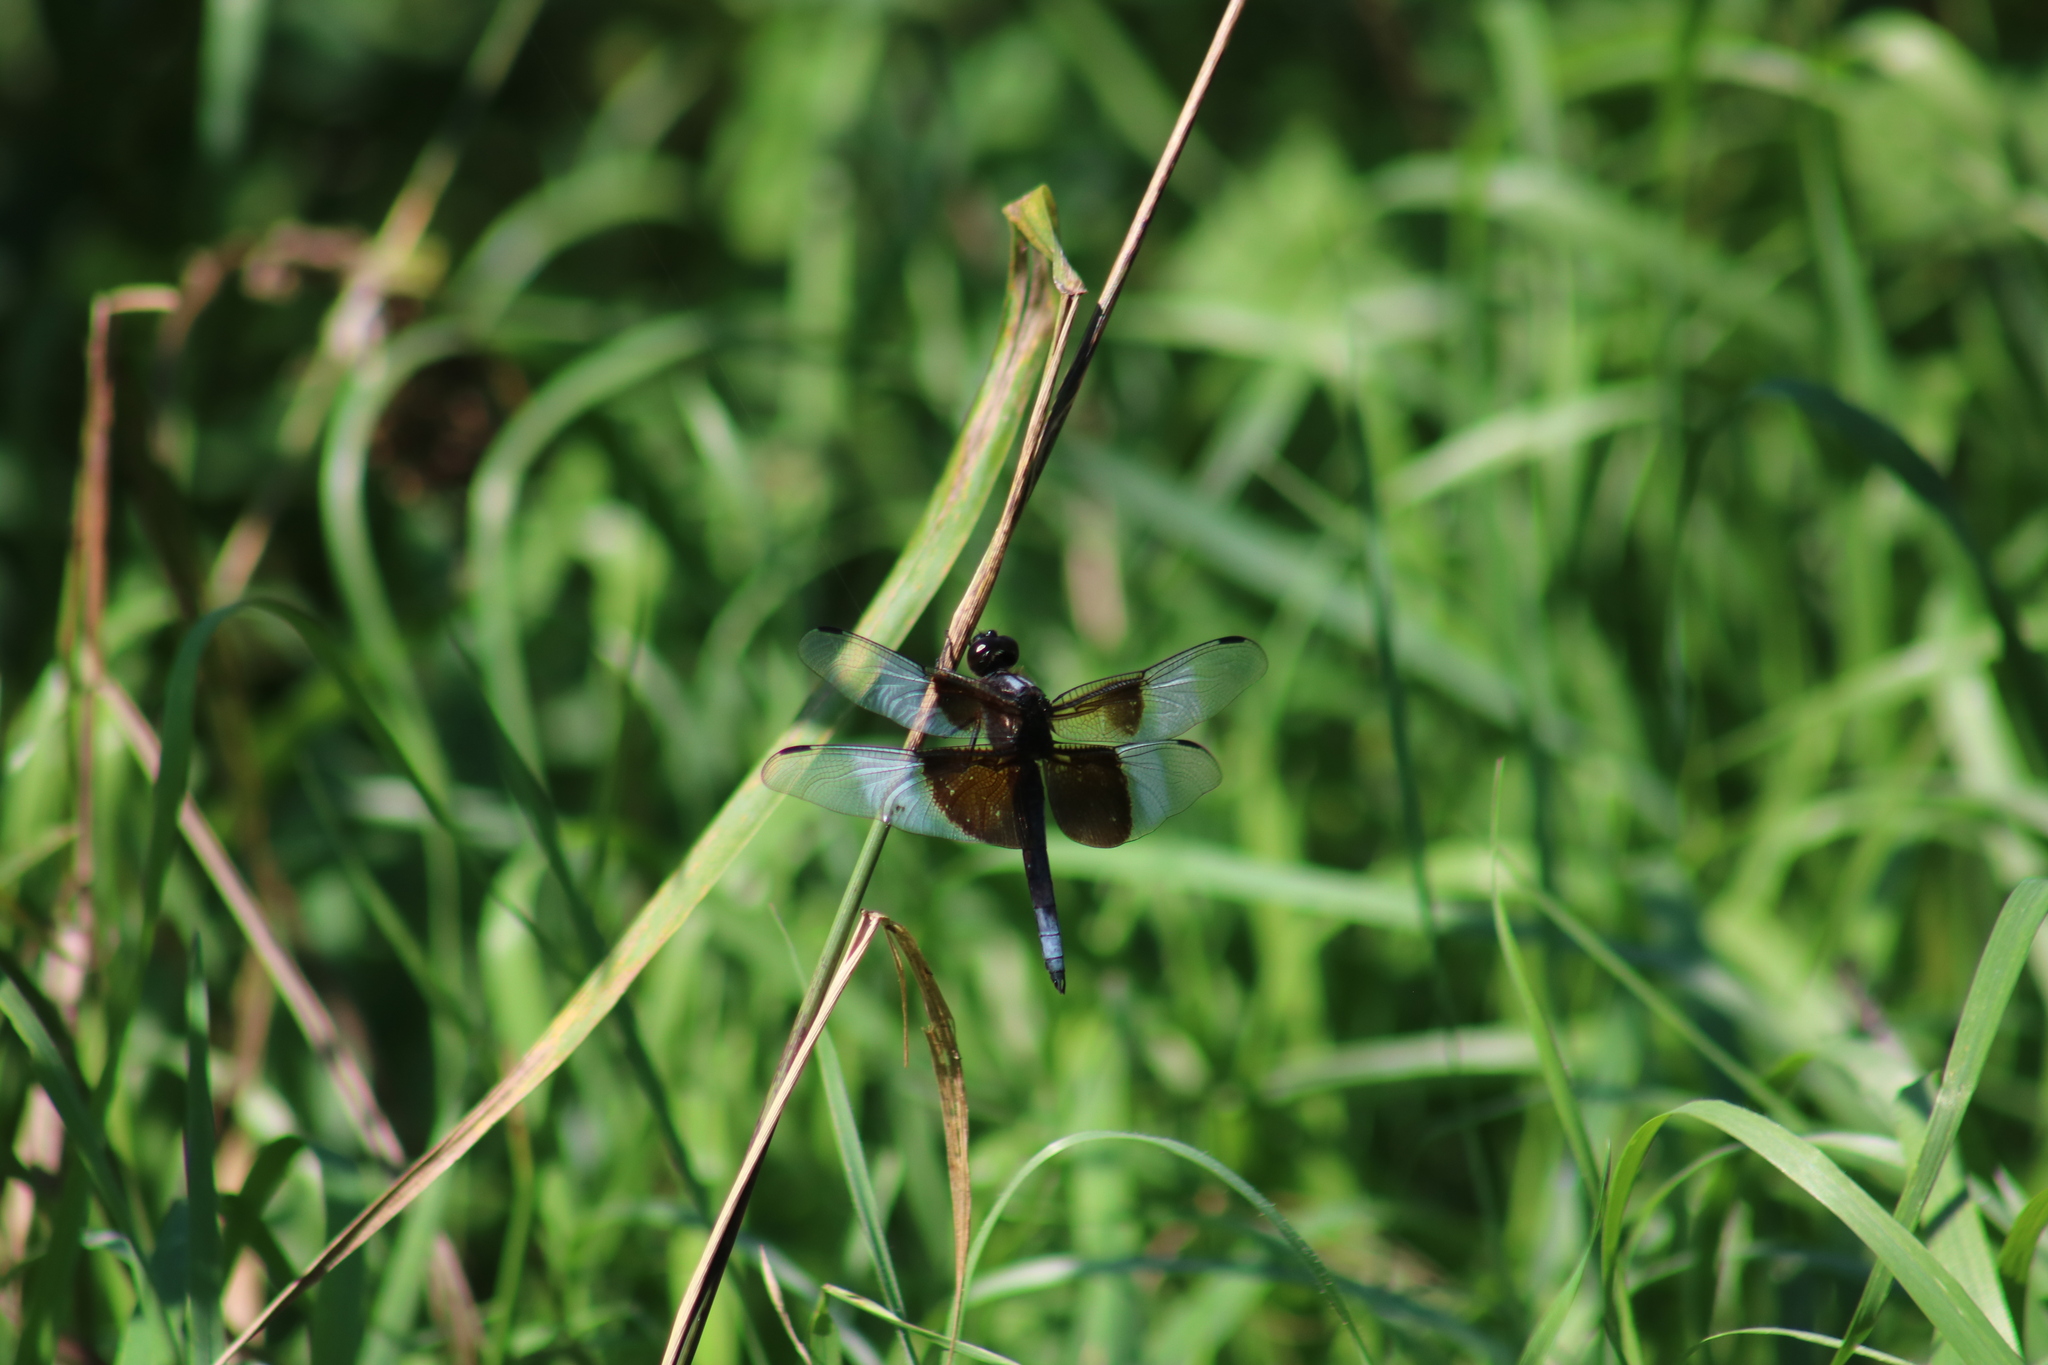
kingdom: Animalia
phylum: Arthropoda
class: Insecta
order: Odonata
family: Libellulidae
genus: Libellula
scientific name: Libellula luctuosa
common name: Widow skimmer
